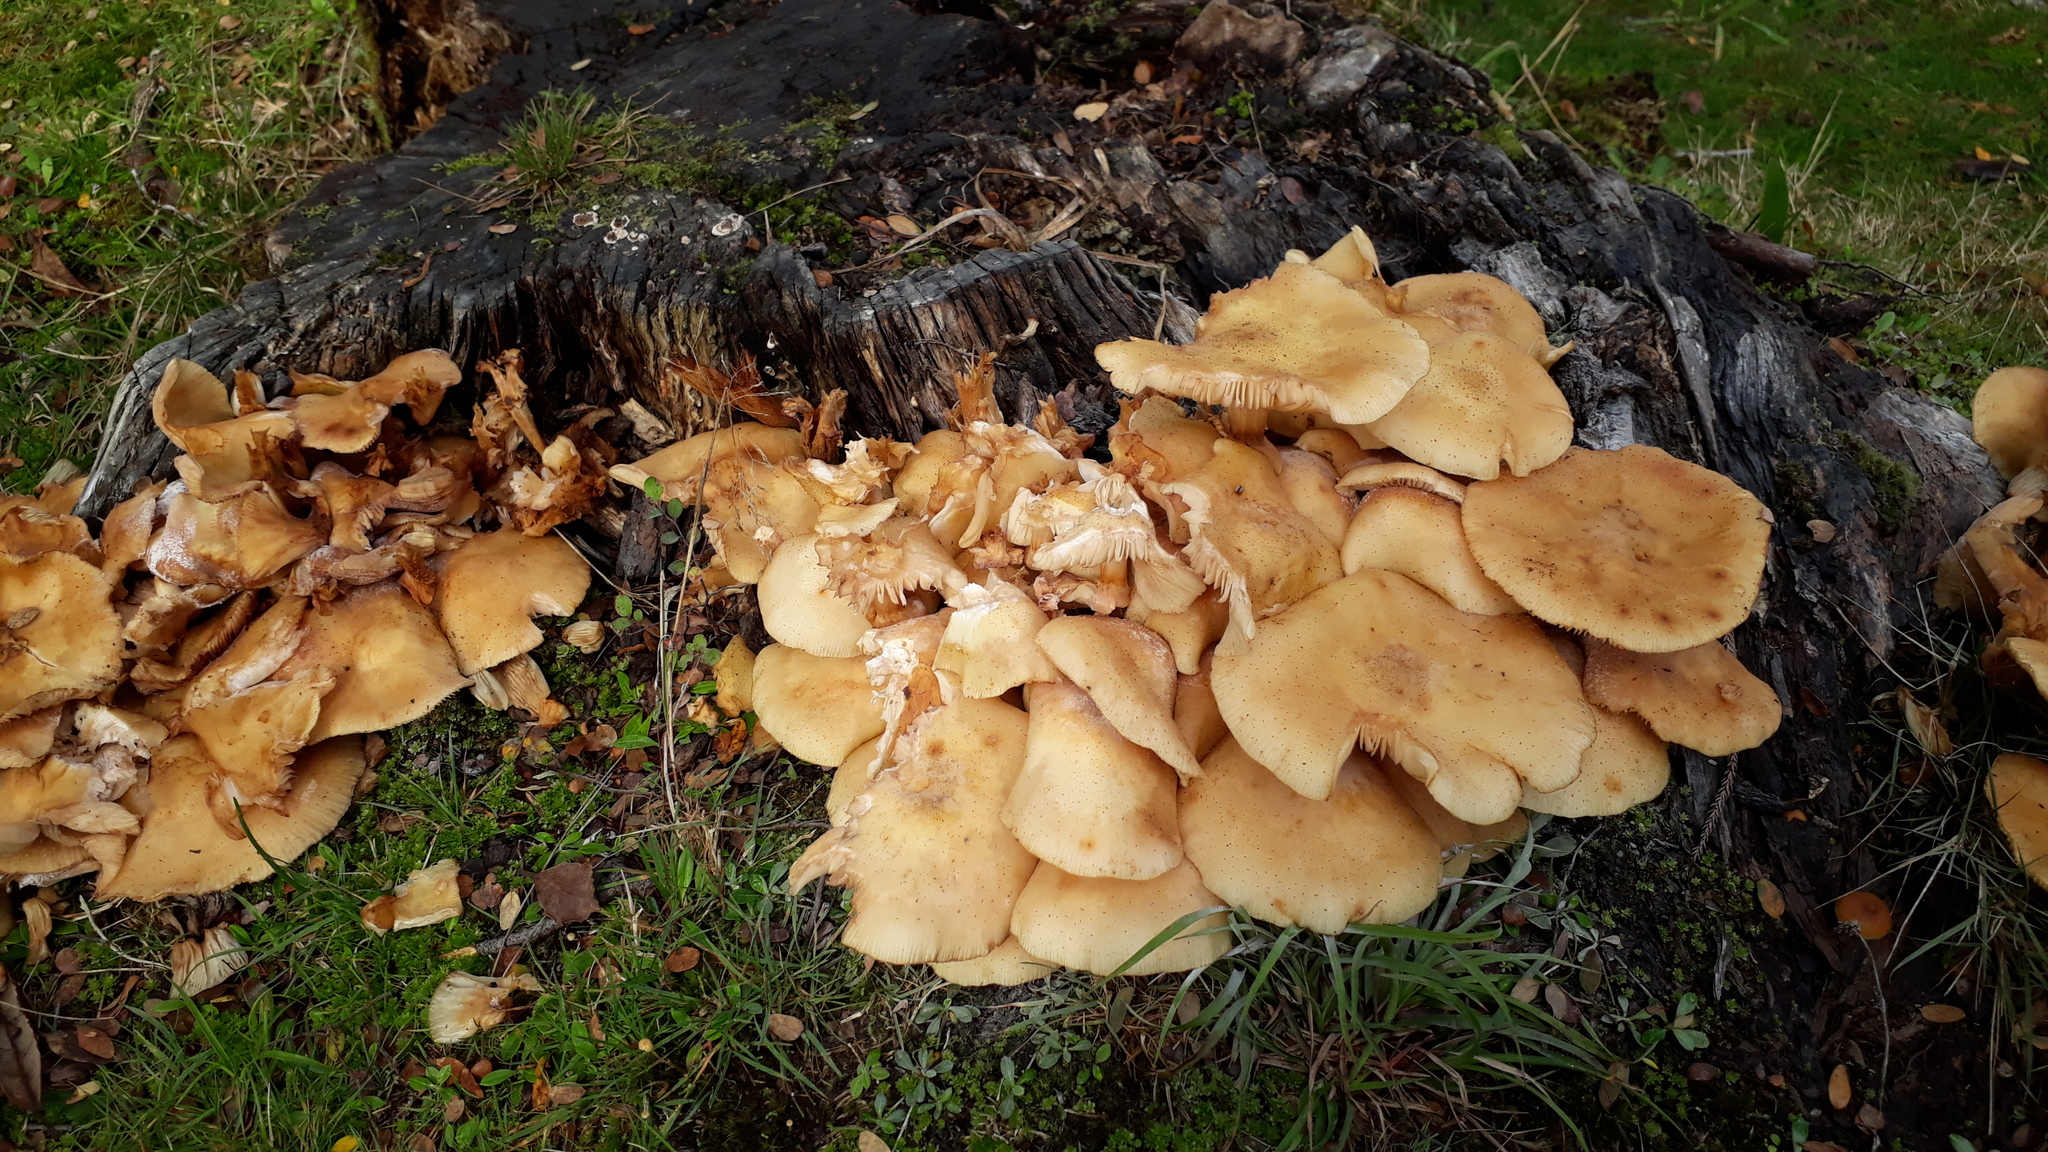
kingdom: Fungi
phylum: Basidiomycota
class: Agaricomycetes
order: Agaricales
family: Physalacriaceae
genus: Armillaria
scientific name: Armillaria limonea
